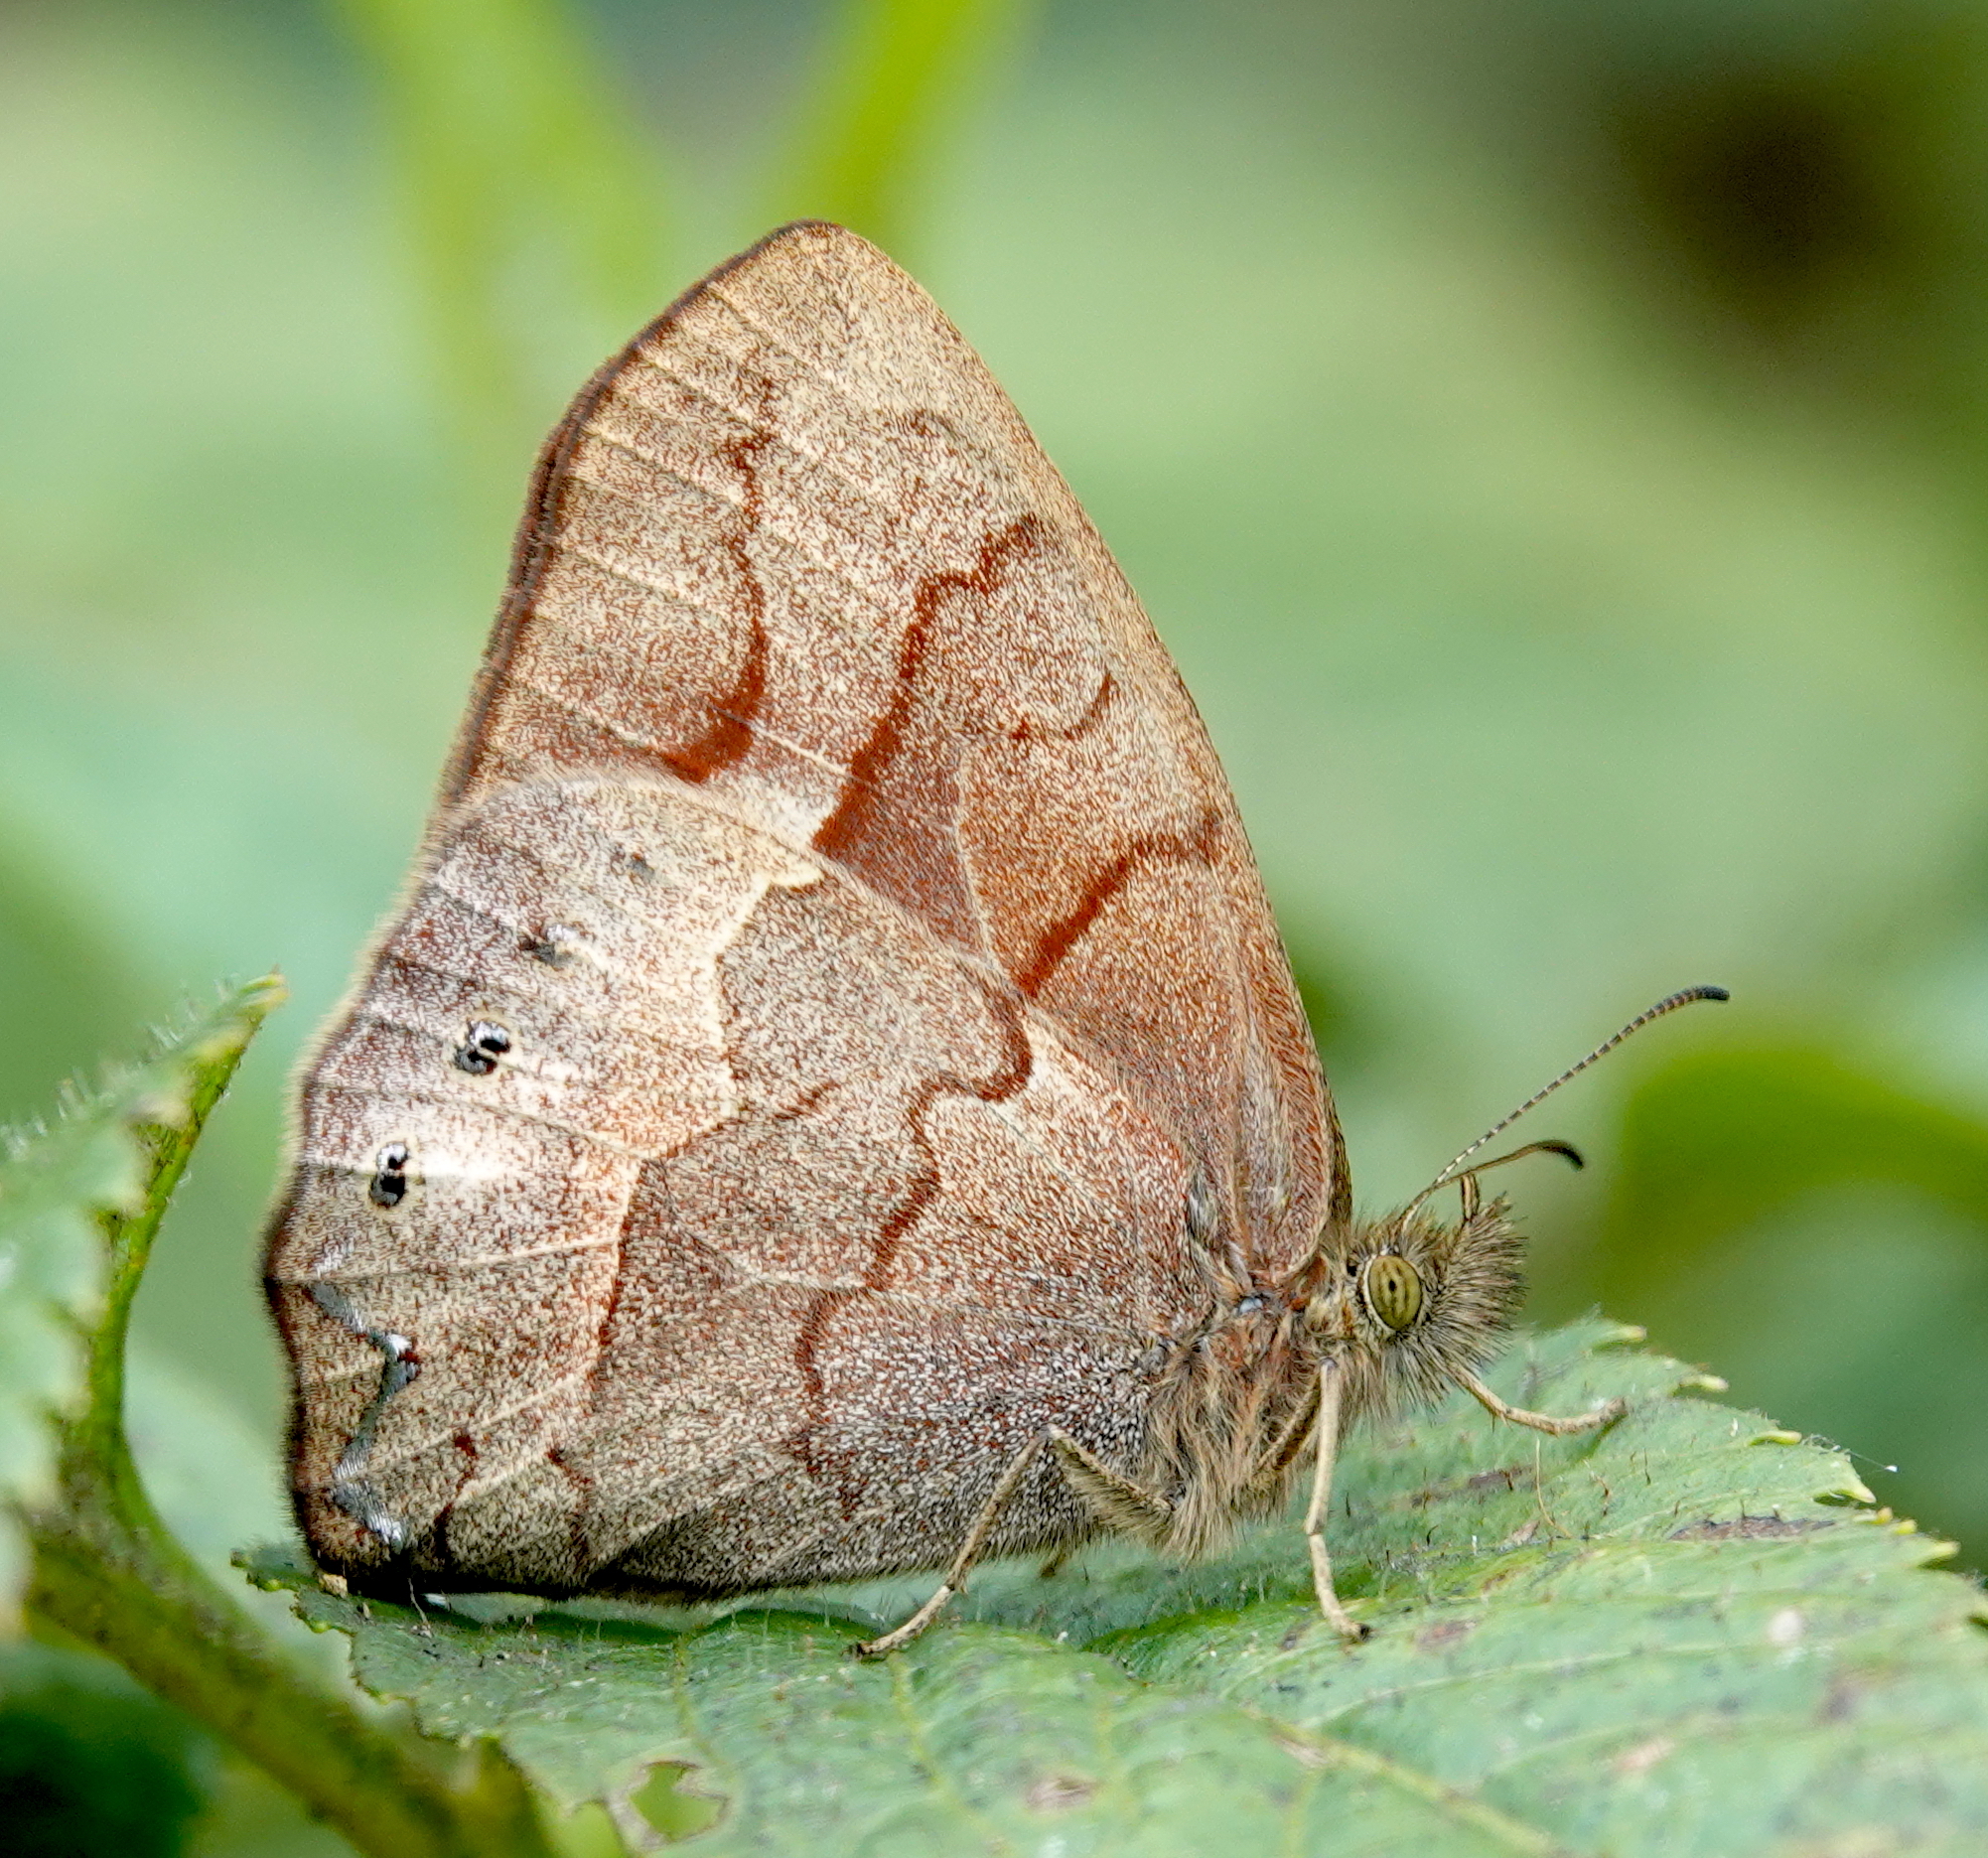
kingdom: Animalia
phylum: Arthropoda
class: Insecta
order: Lepidoptera
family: Nymphalidae
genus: Euptychia
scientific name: Euptychia
